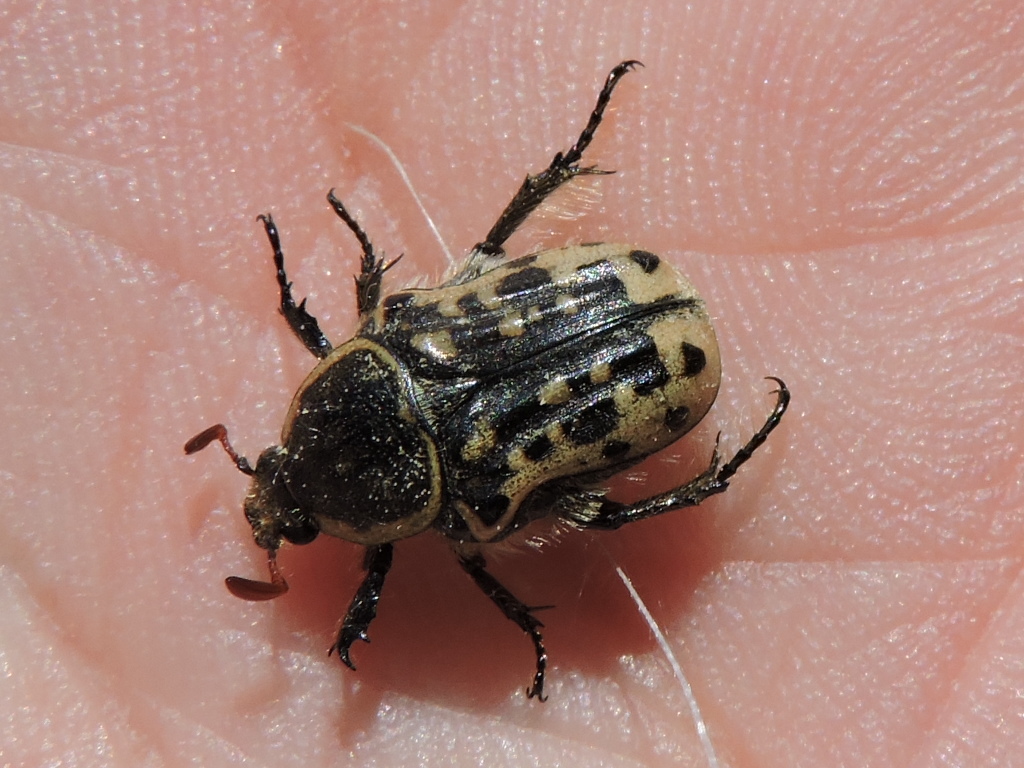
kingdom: Animalia
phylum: Arthropoda
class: Insecta
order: Coleoptera
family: Scarabaeidae
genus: Euphoria
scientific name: Euphoria kernii
